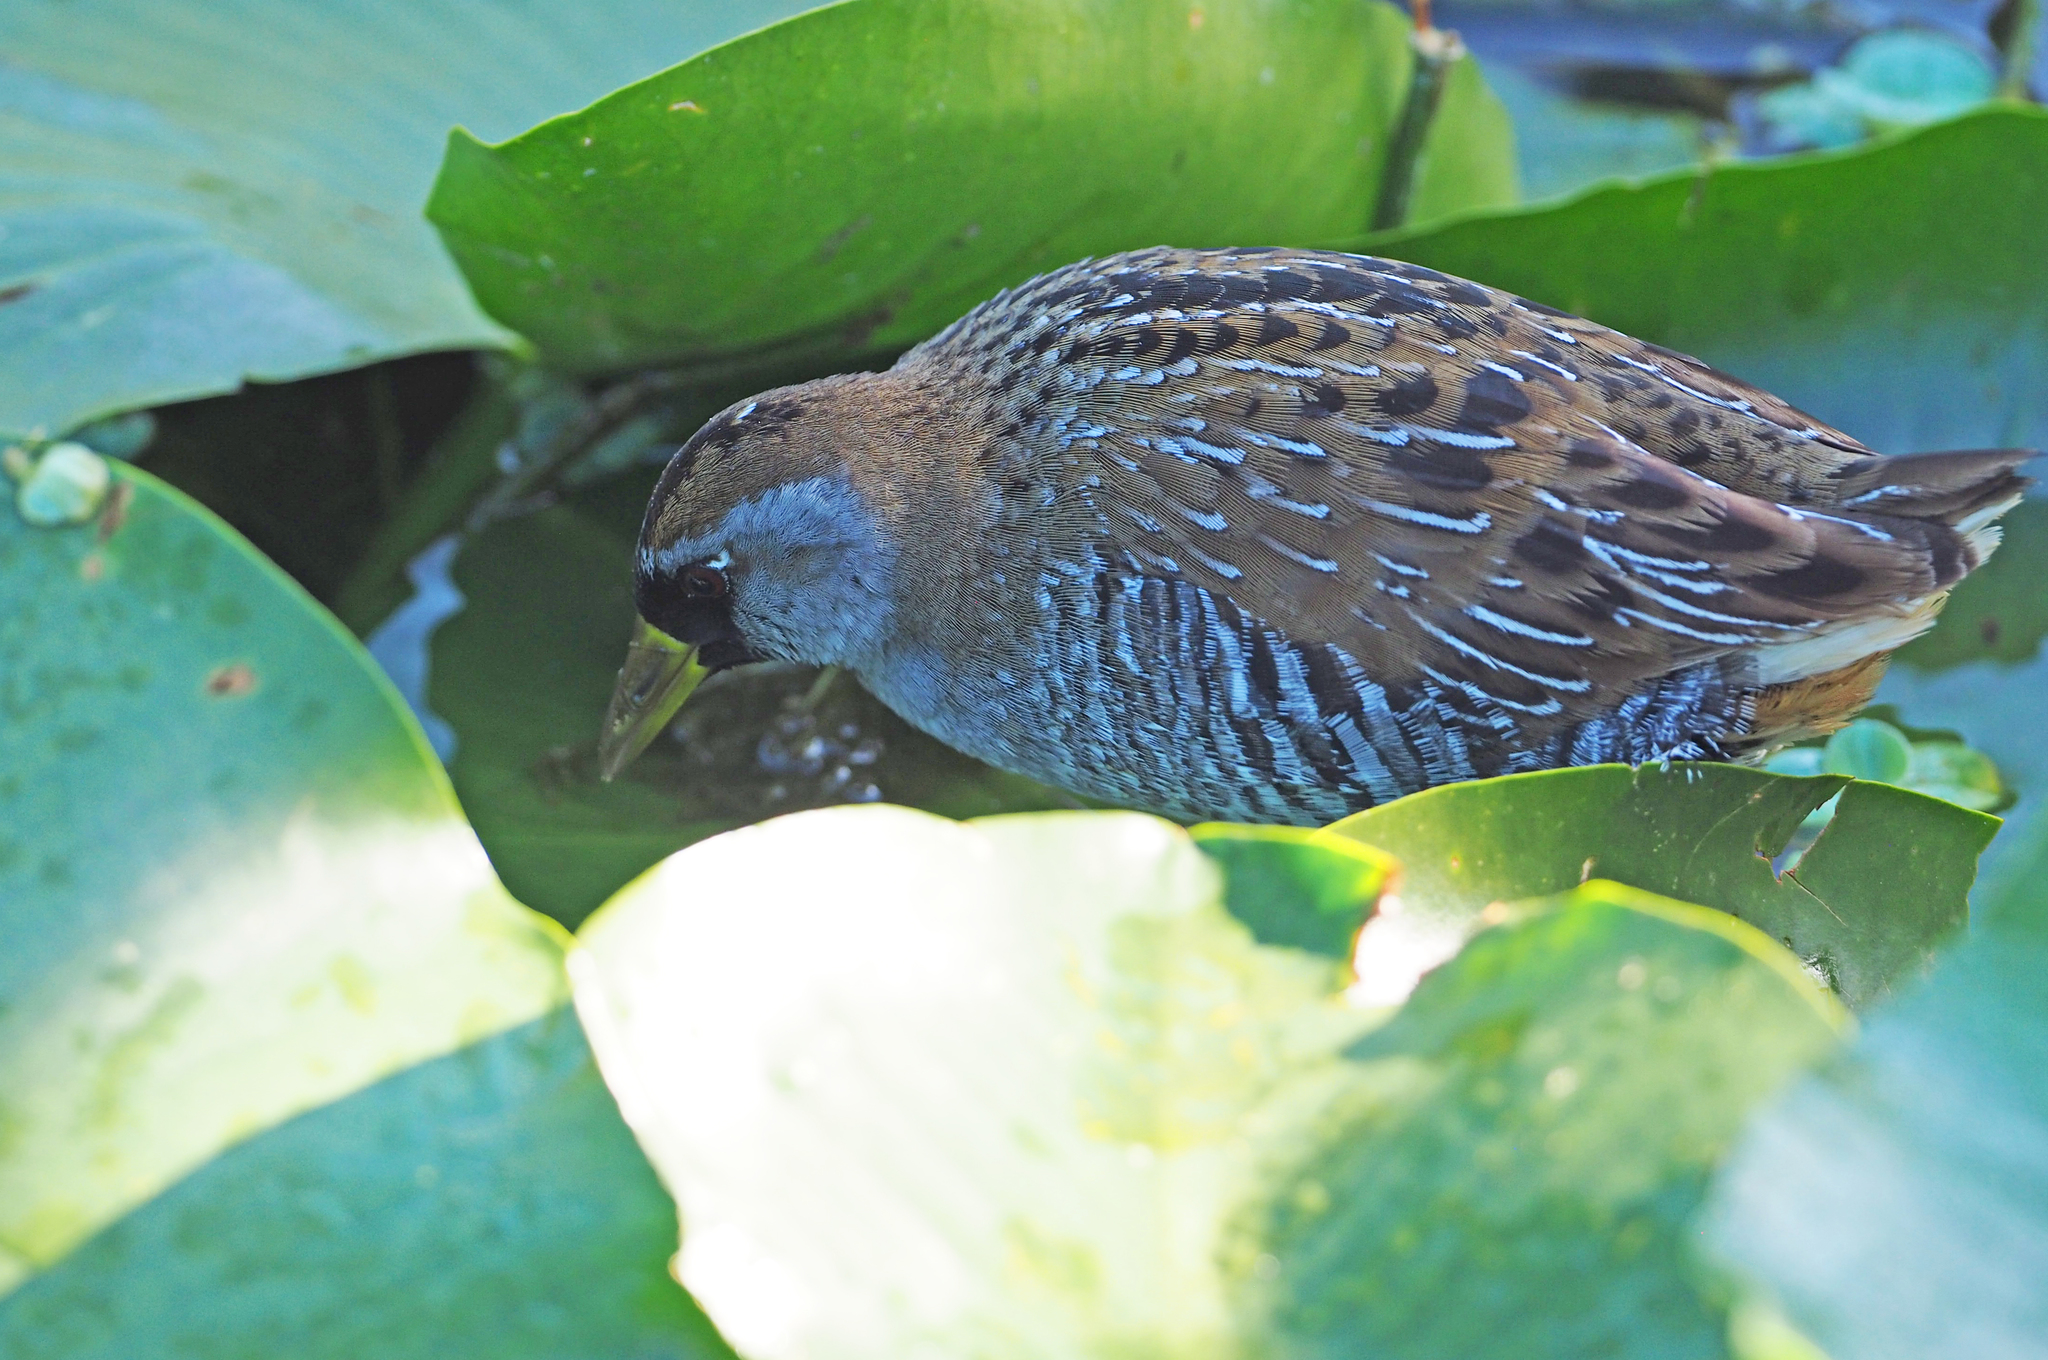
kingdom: Animalia
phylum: Chordata
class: Aves
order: Gruiformes
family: Rallidae
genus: Porzana
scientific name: Porzana carolina
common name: Sora
